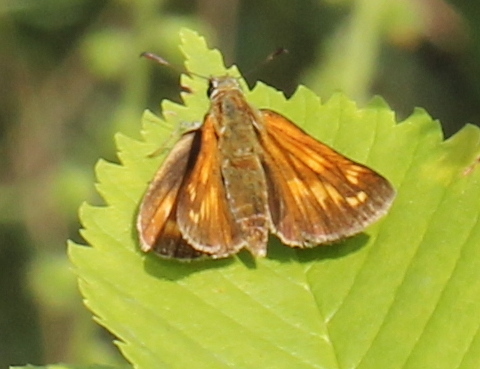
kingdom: Animalia
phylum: Arthropoda
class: Insecta
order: Lepidoptera
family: Hesperiidae
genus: Ochlodes
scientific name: Ochlodes venata
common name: Large skipper
